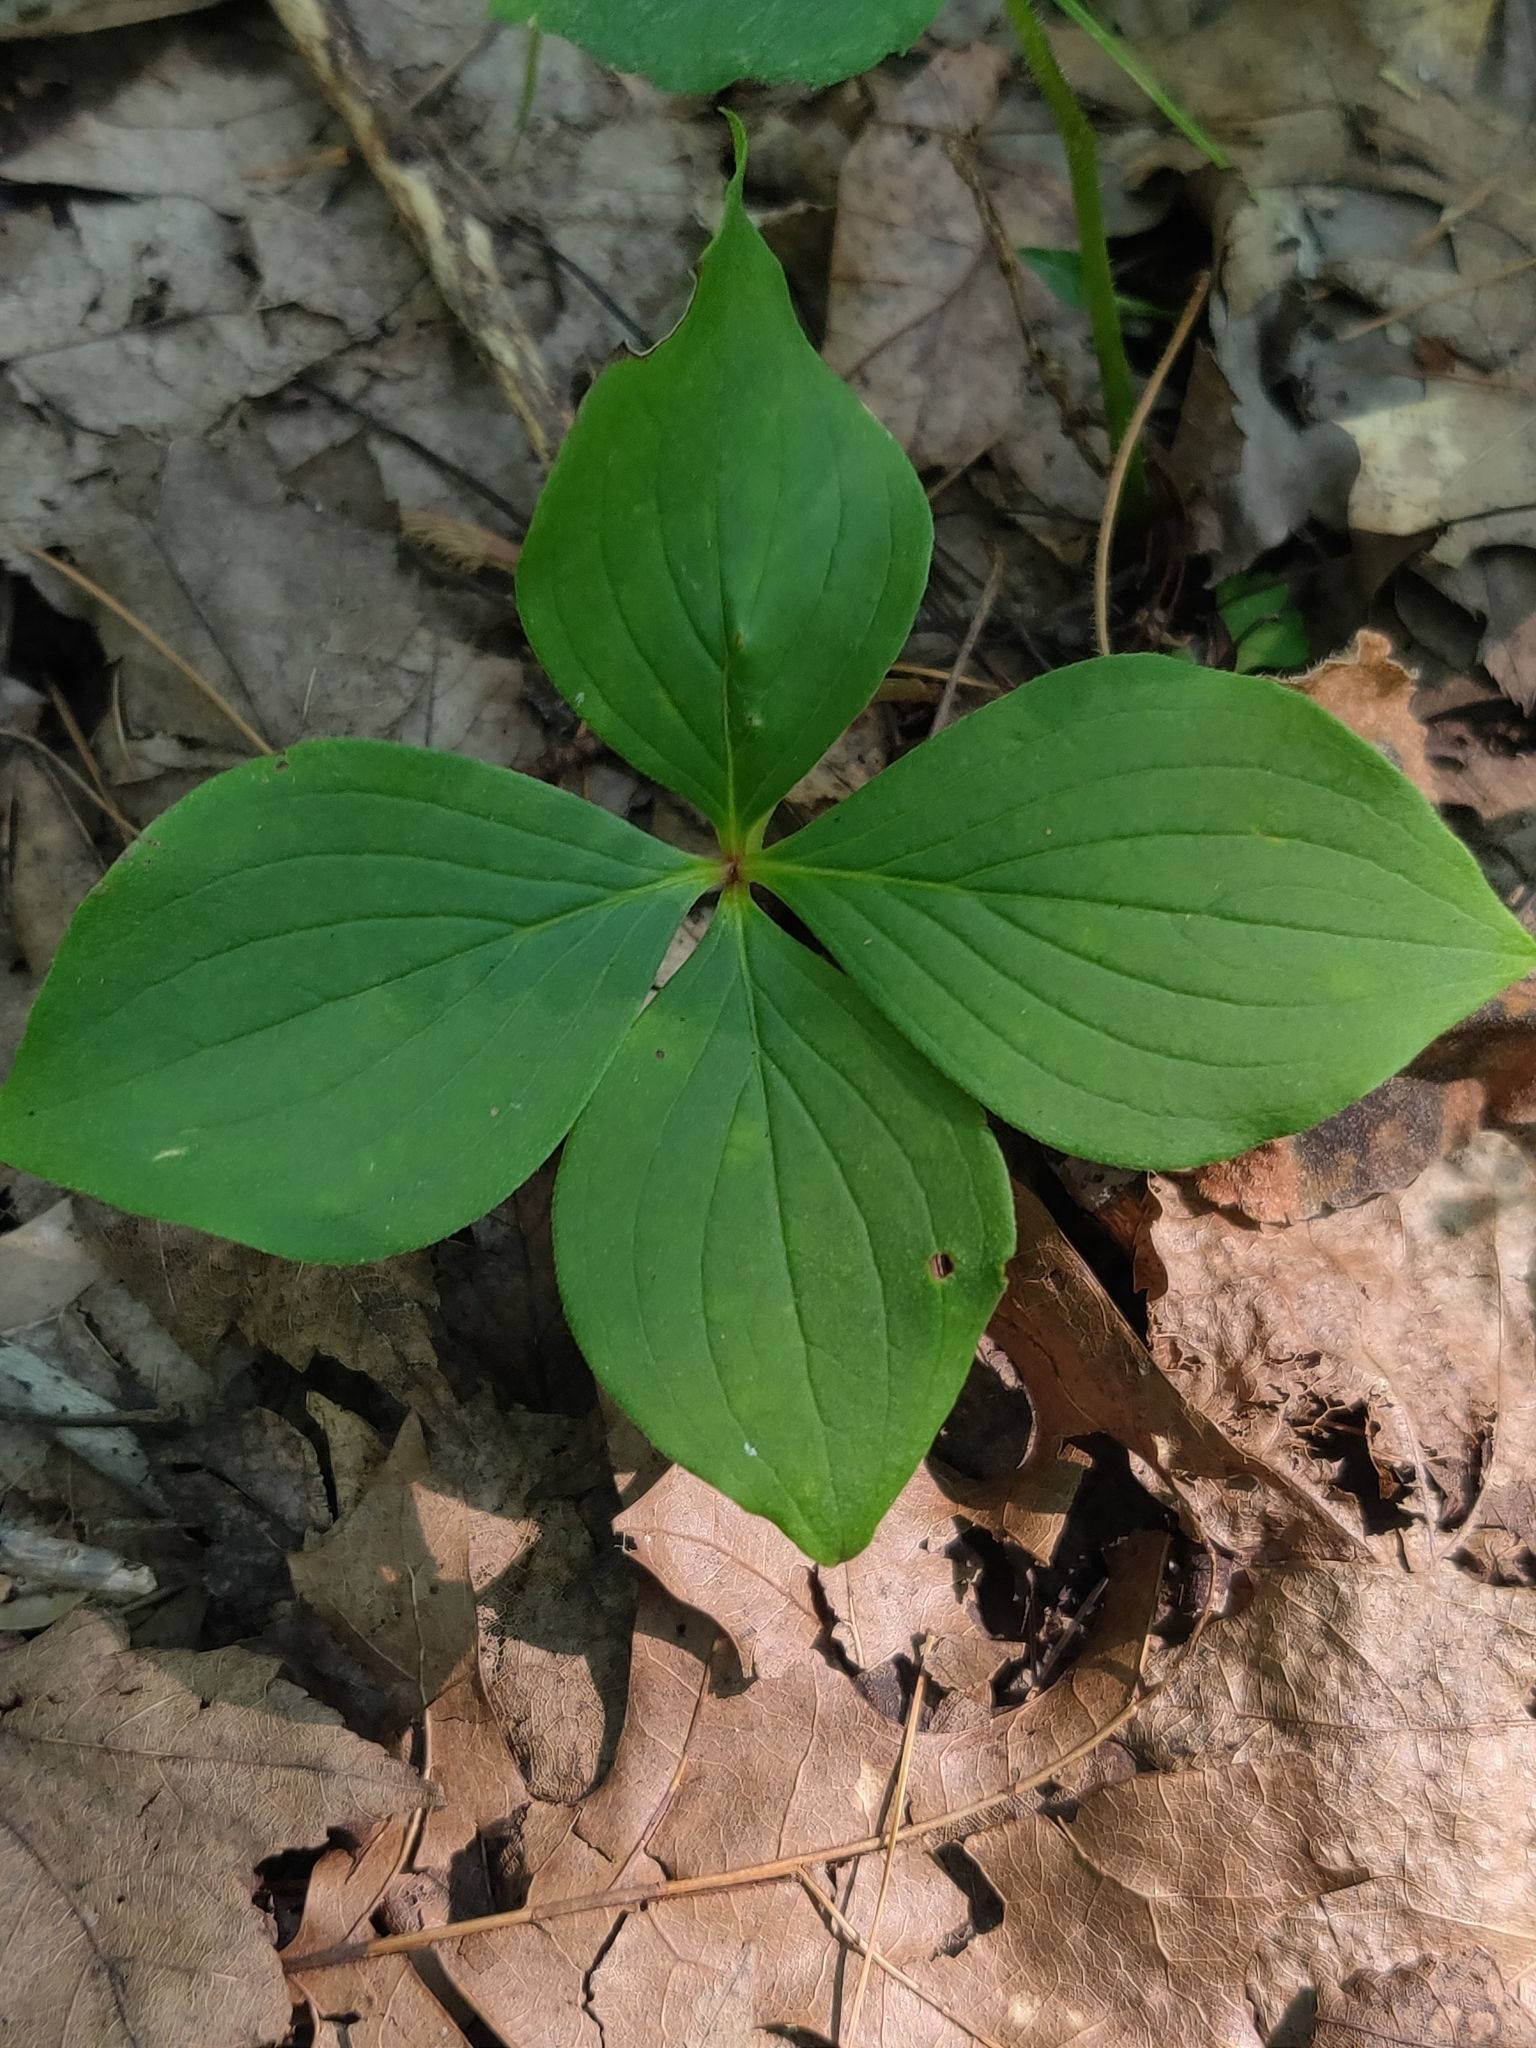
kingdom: Plantae
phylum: Tracheophyta
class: Magnoliopsida
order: Cornales
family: Cornaceae
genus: Cornus
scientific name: Cornus canadensis
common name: Creeping dogwood
